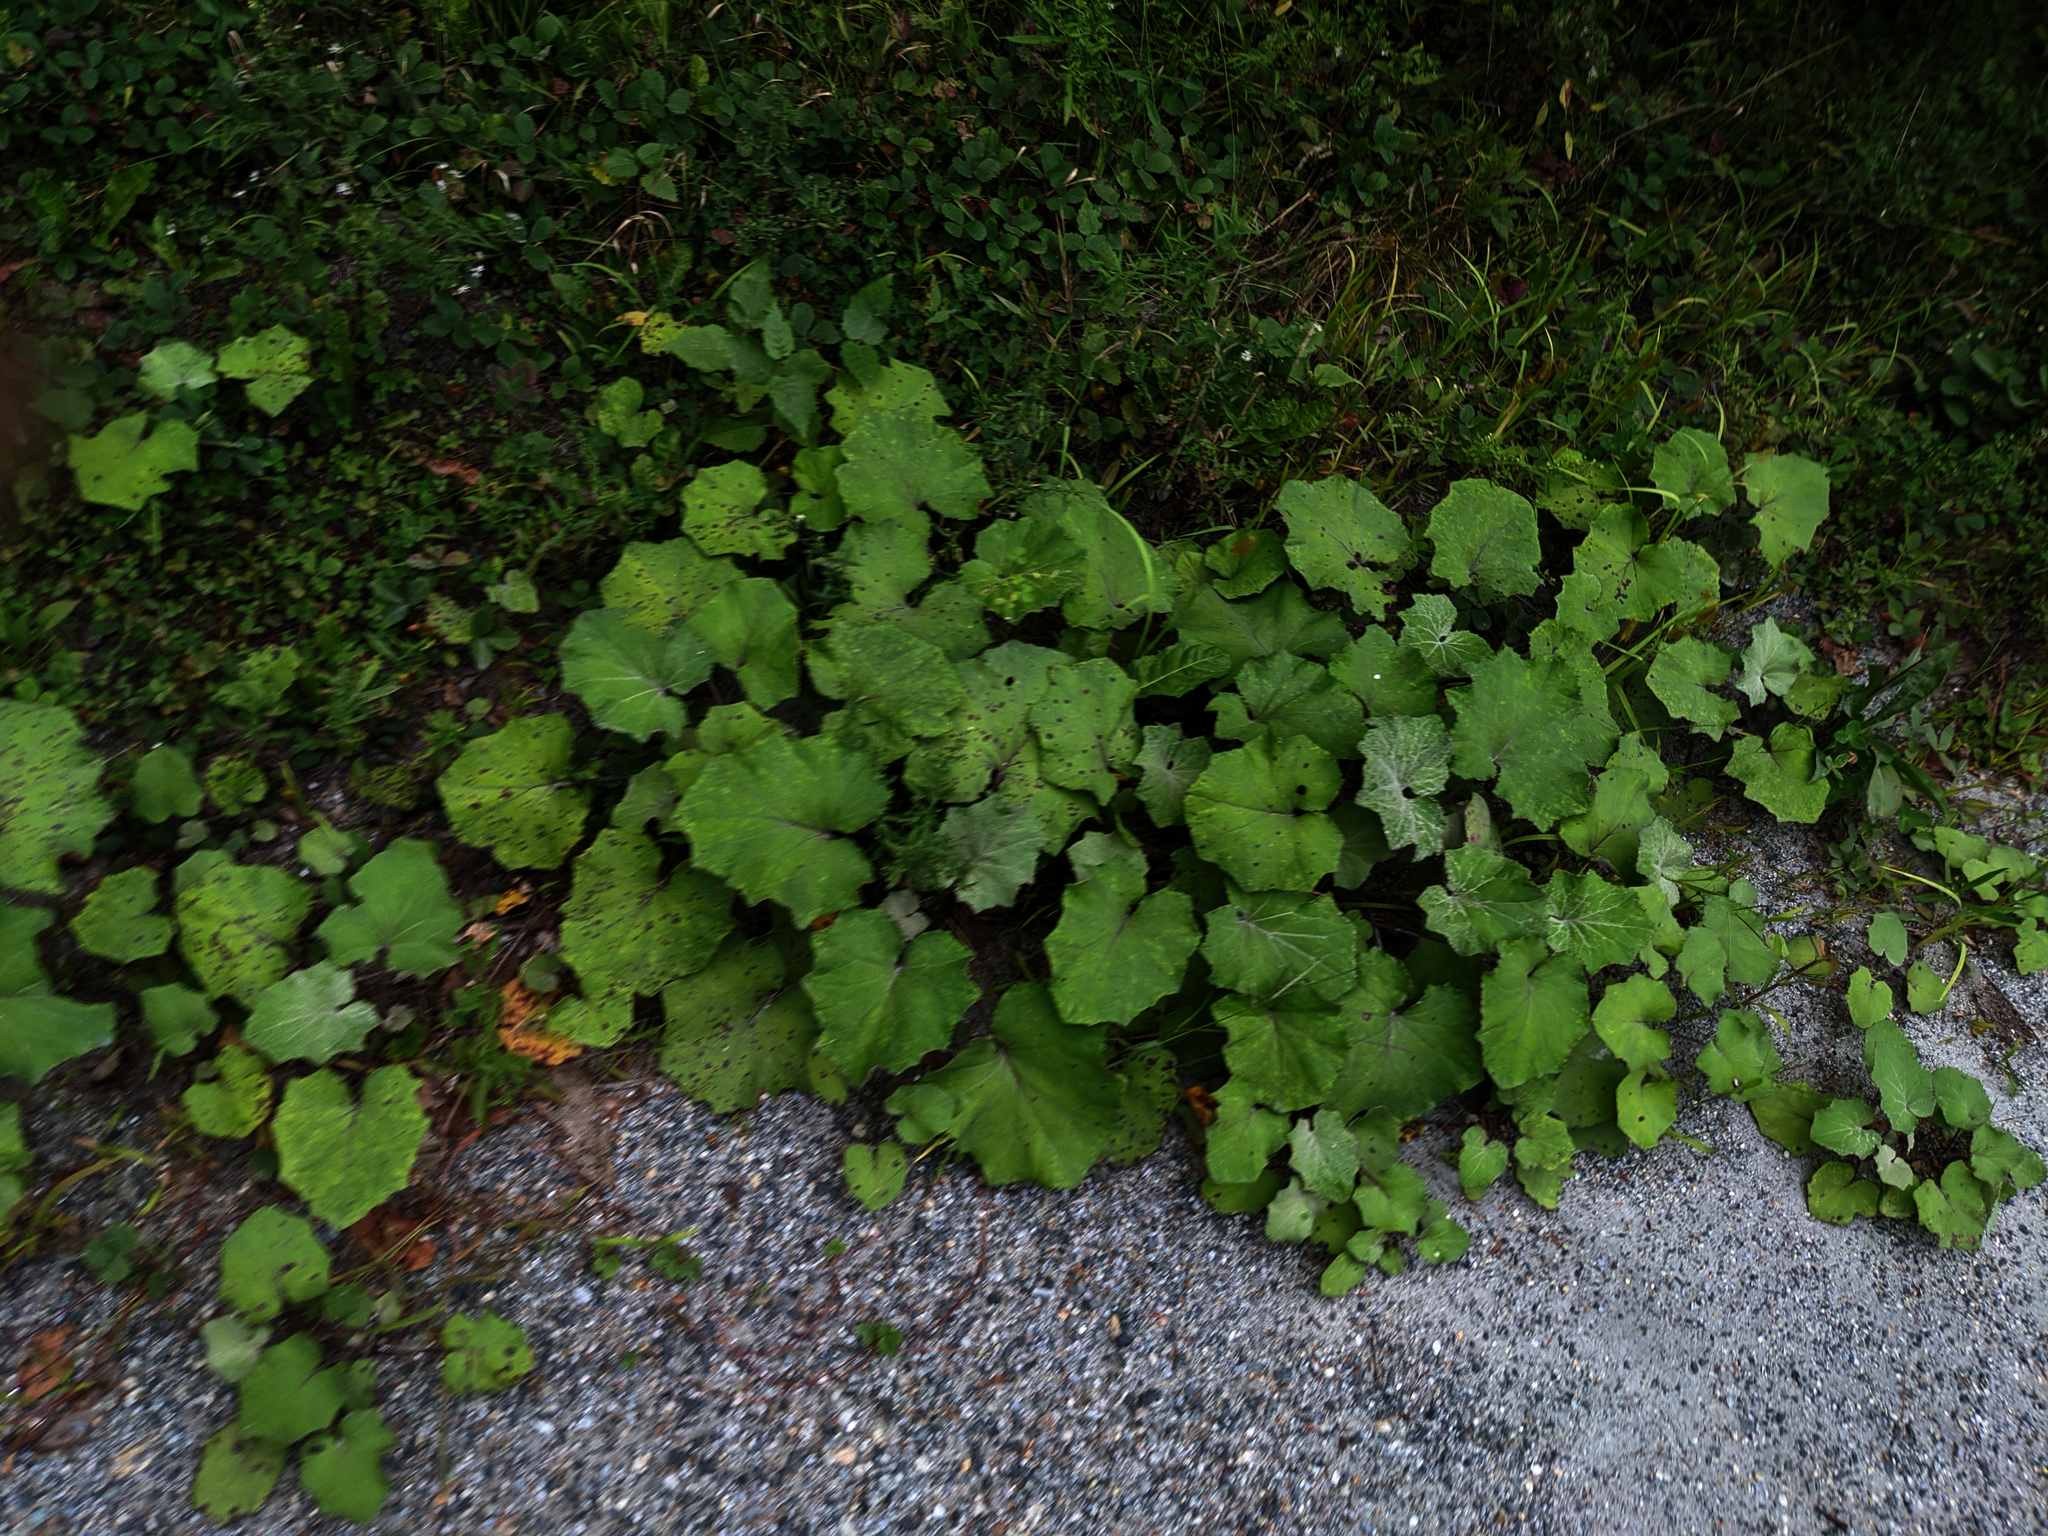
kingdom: Plantae
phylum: Tracheophyta
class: Magnoliopsida
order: Asterales
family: Asteraceae
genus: Tussilago
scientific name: Tussilago farfara
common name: Coltsfoot
